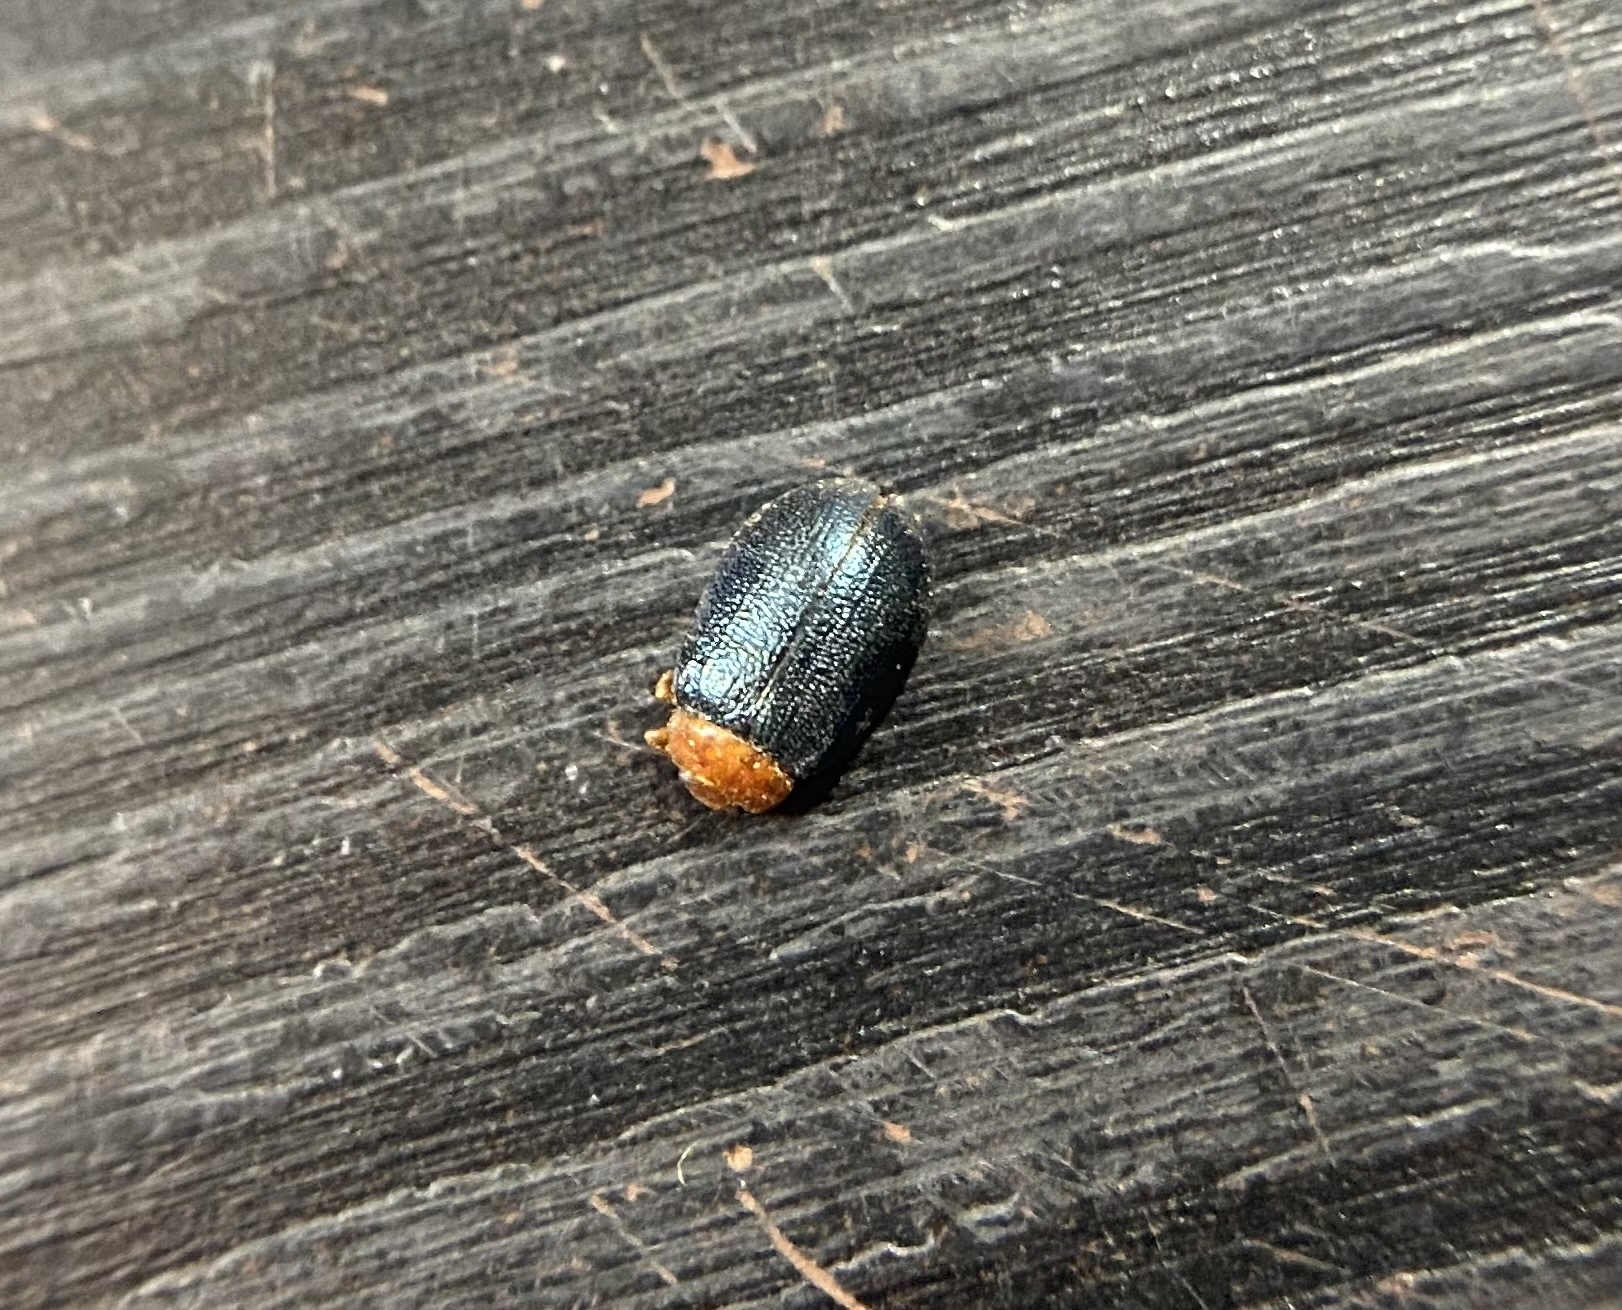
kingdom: Animalia
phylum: Arthropoda
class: Insecta
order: Coleoptera
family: Chrysomelidae
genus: Plagiodera
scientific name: Plagiodera arizonae
